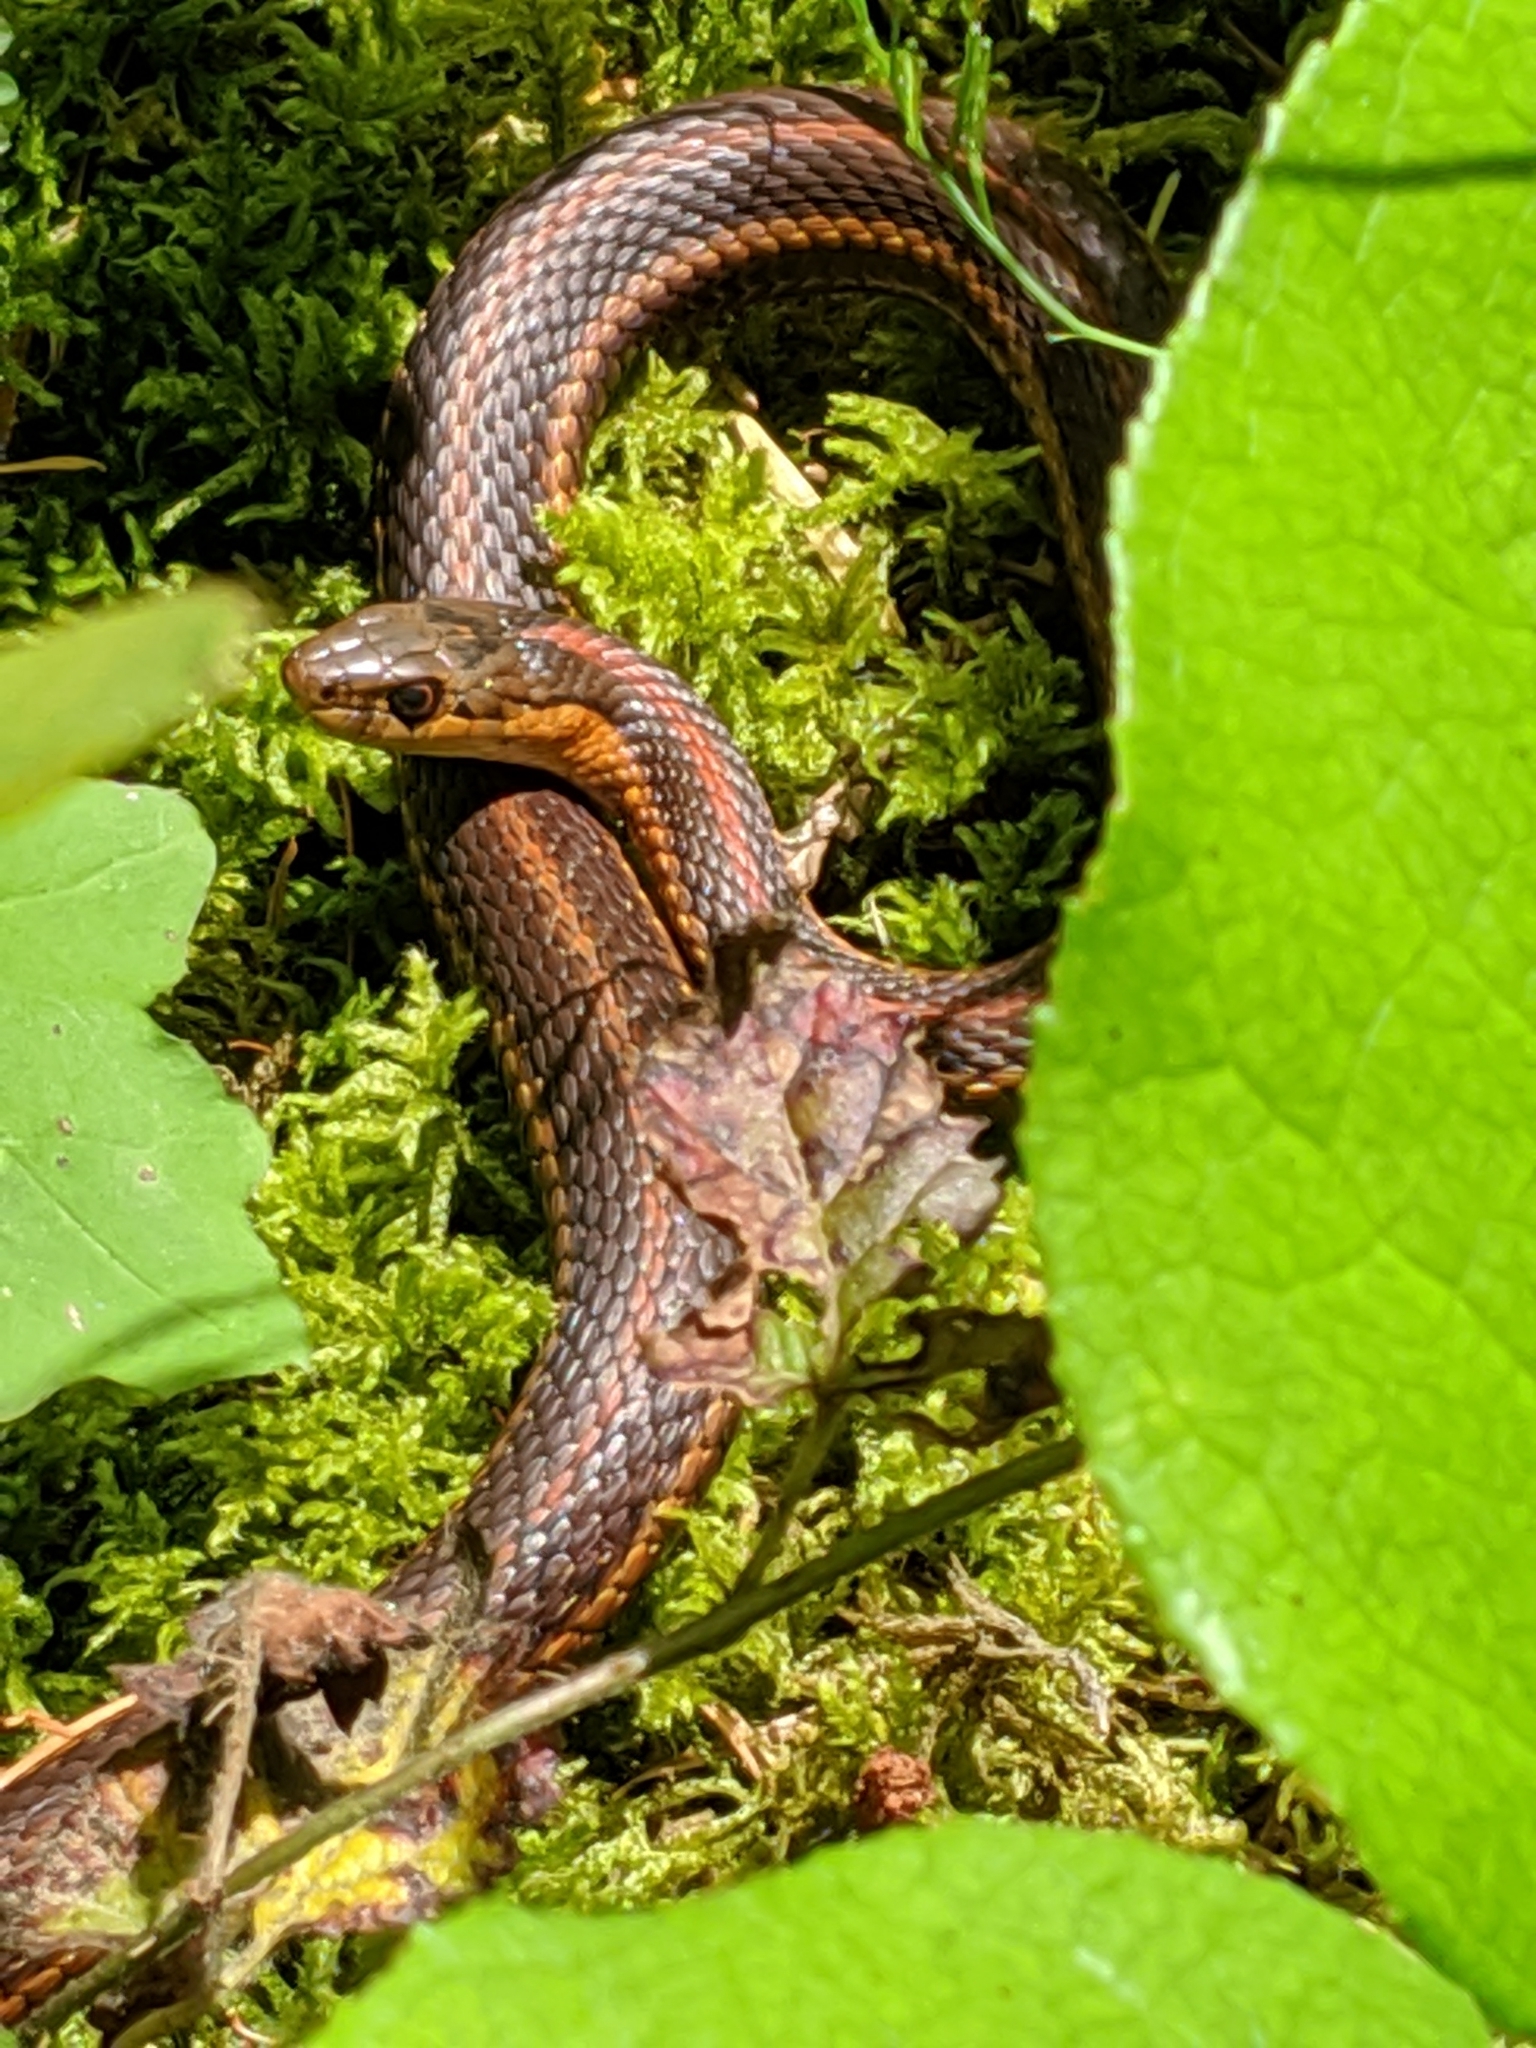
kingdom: Animalia
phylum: Chordata
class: Squamata
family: Colubridae
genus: Thamnophis
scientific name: Thamnophis ordinoides
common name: Northwestern garter snake
